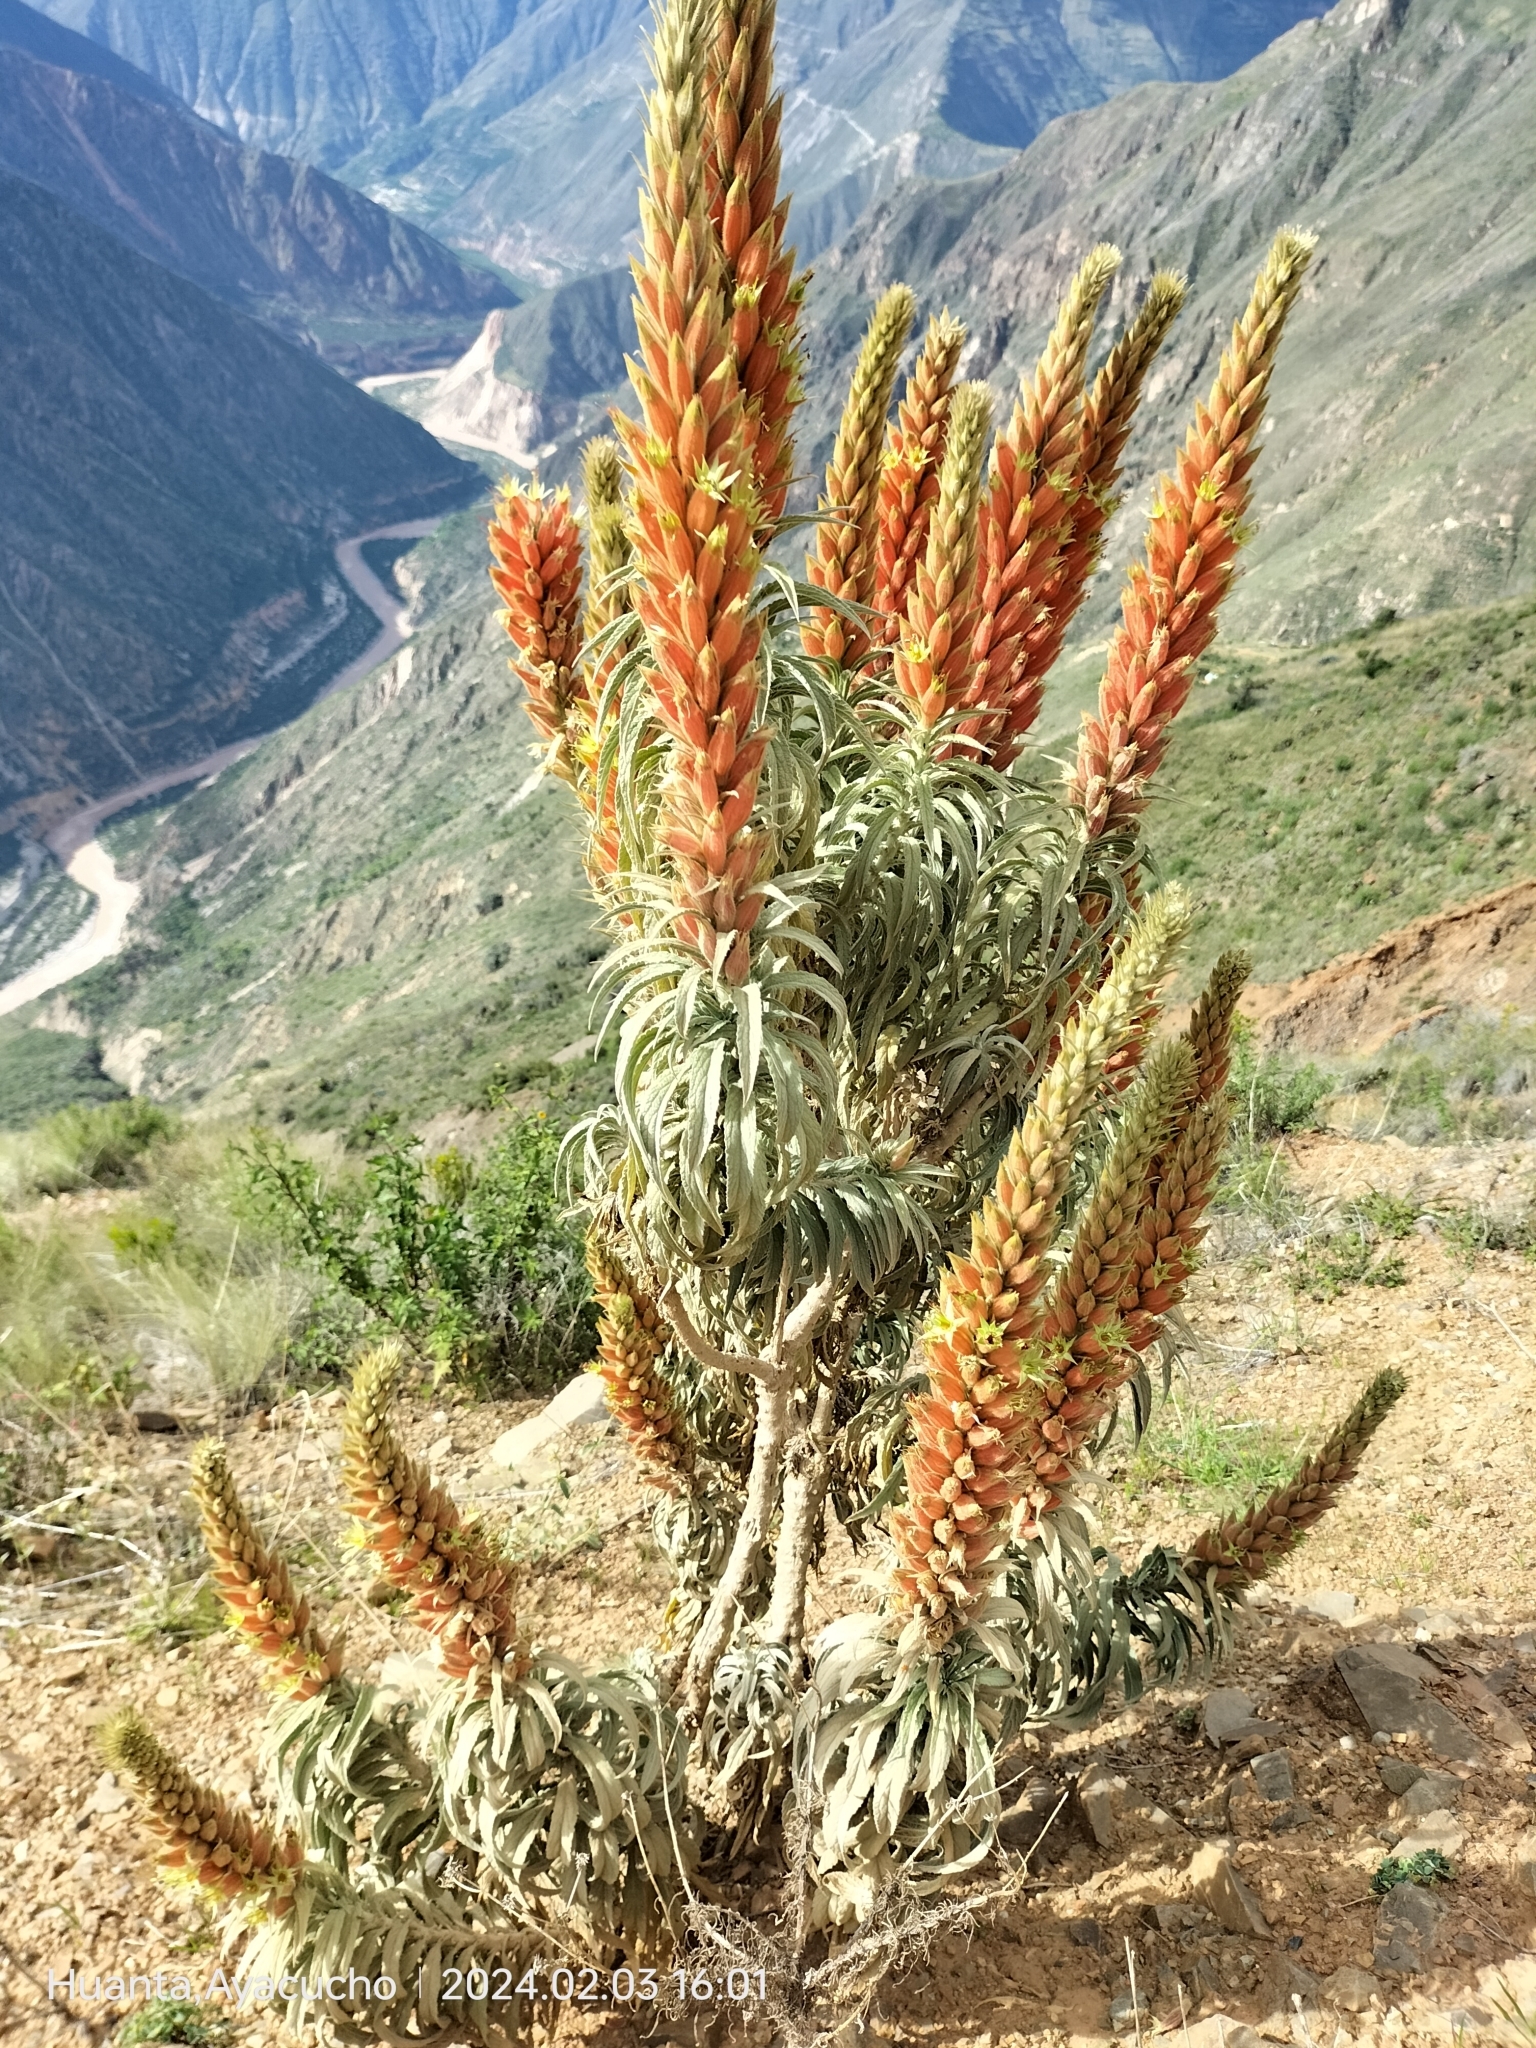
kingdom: Plantae
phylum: Tracheophyta
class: Magnoliopsida
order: Malpighiales
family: Malesherbiaceae
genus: Malesherbia
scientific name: Malesherbia weberbaueri
